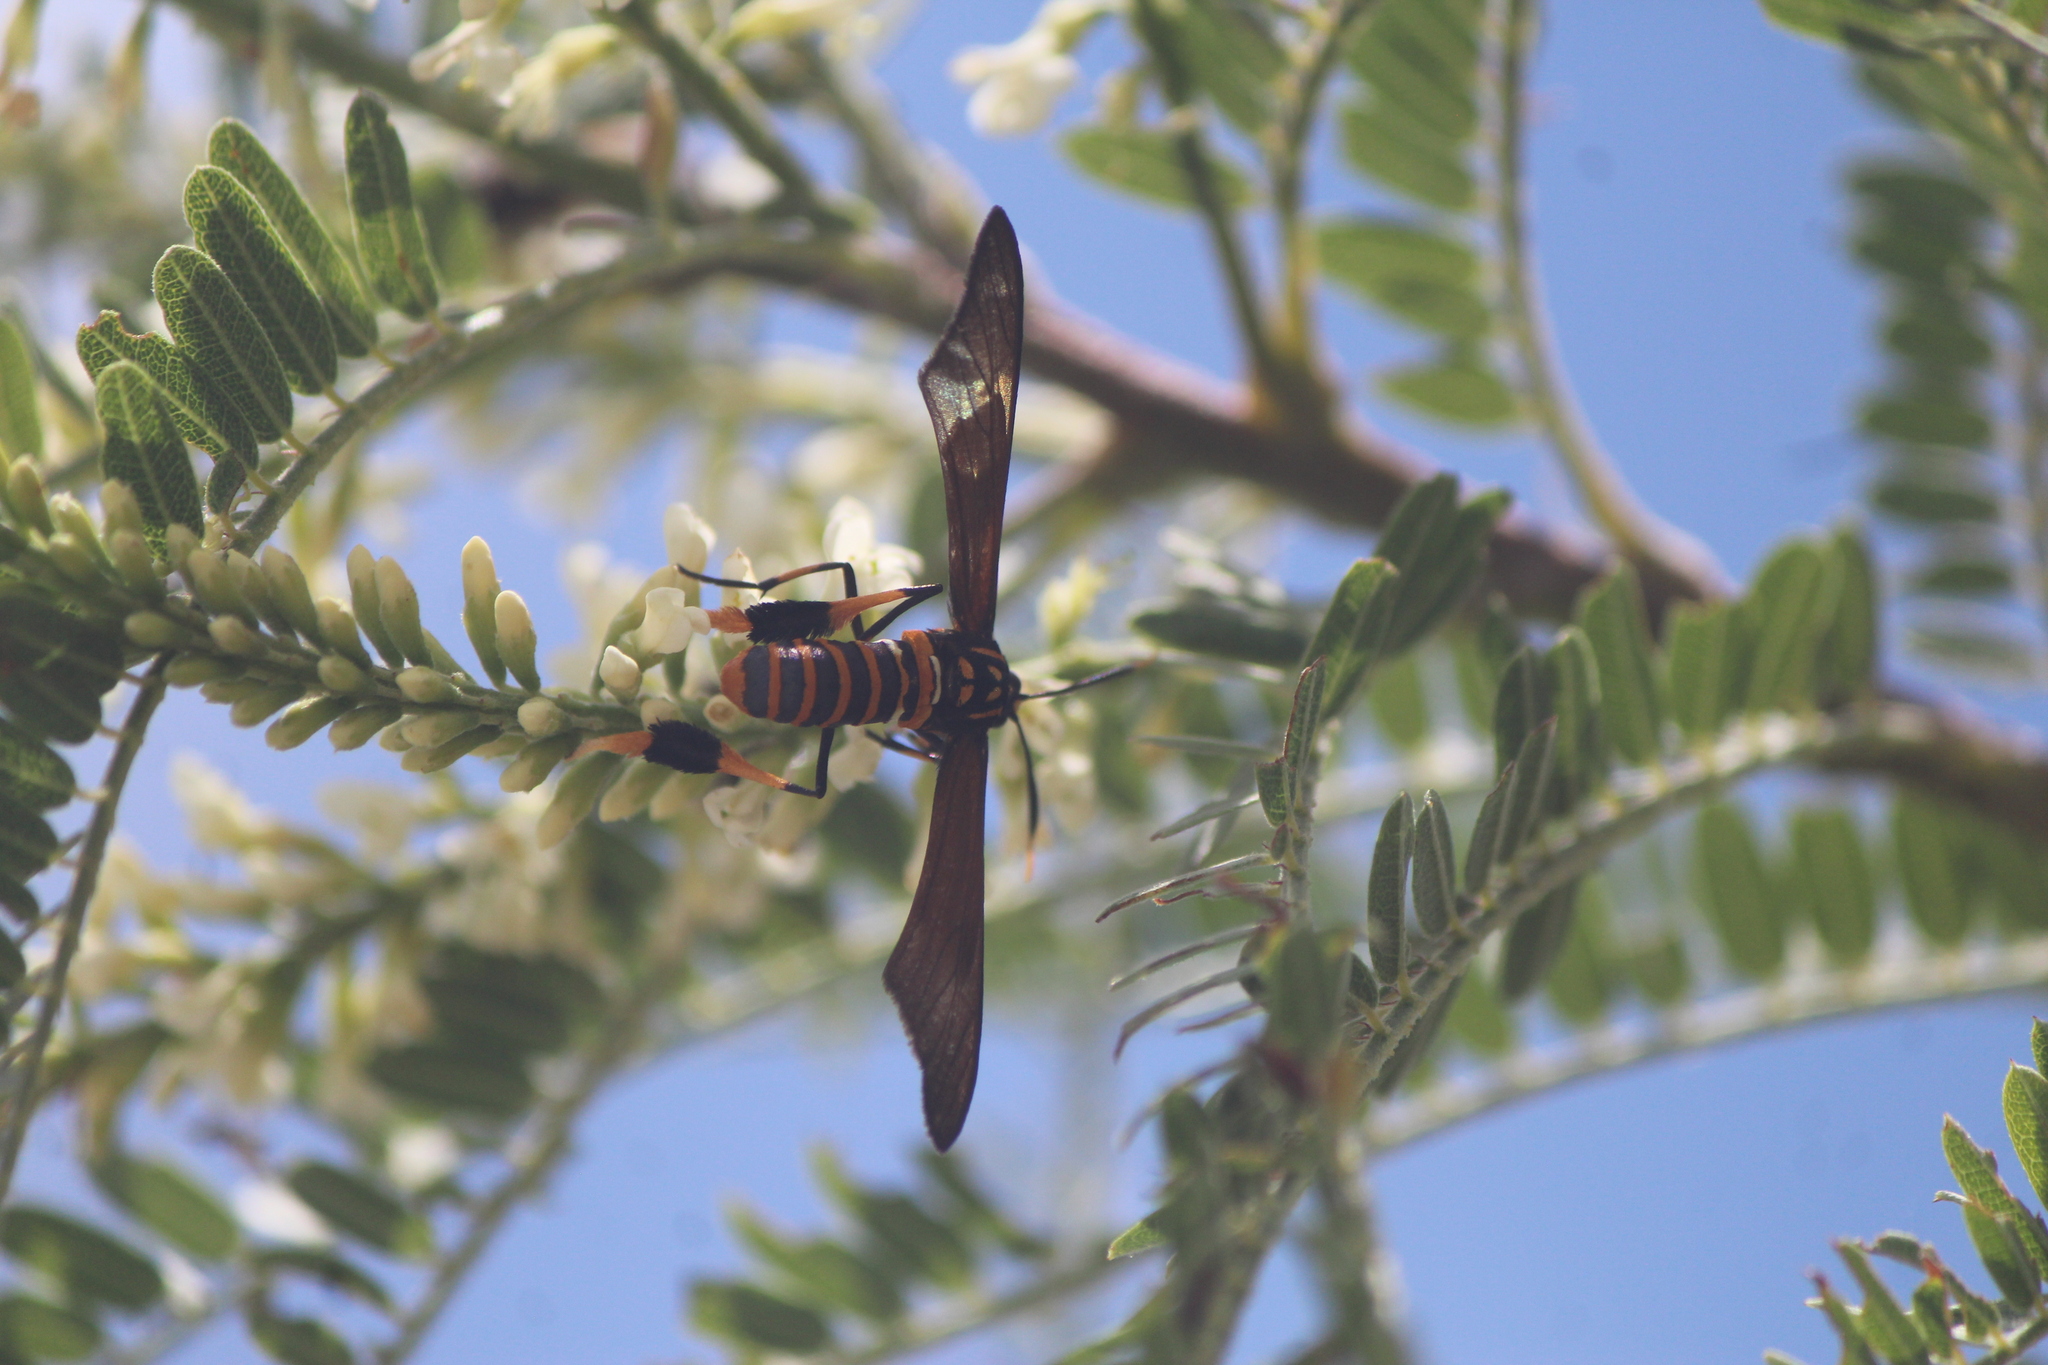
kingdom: Animalia
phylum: Arthropoda
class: Insecta
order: Lepidoptera
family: Erebidae
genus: Horama
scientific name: Horama panthalon
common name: Texas wasp moth
